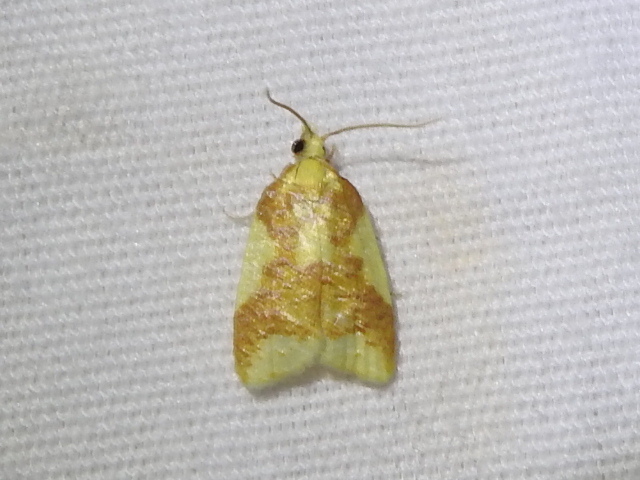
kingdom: Animalia
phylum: Arthropoda
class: Insecta
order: Lepidoptera
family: Tortricidae
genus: Sparganothis
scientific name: Sparganothis pulcherrimana
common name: Beautiful sparganothis
